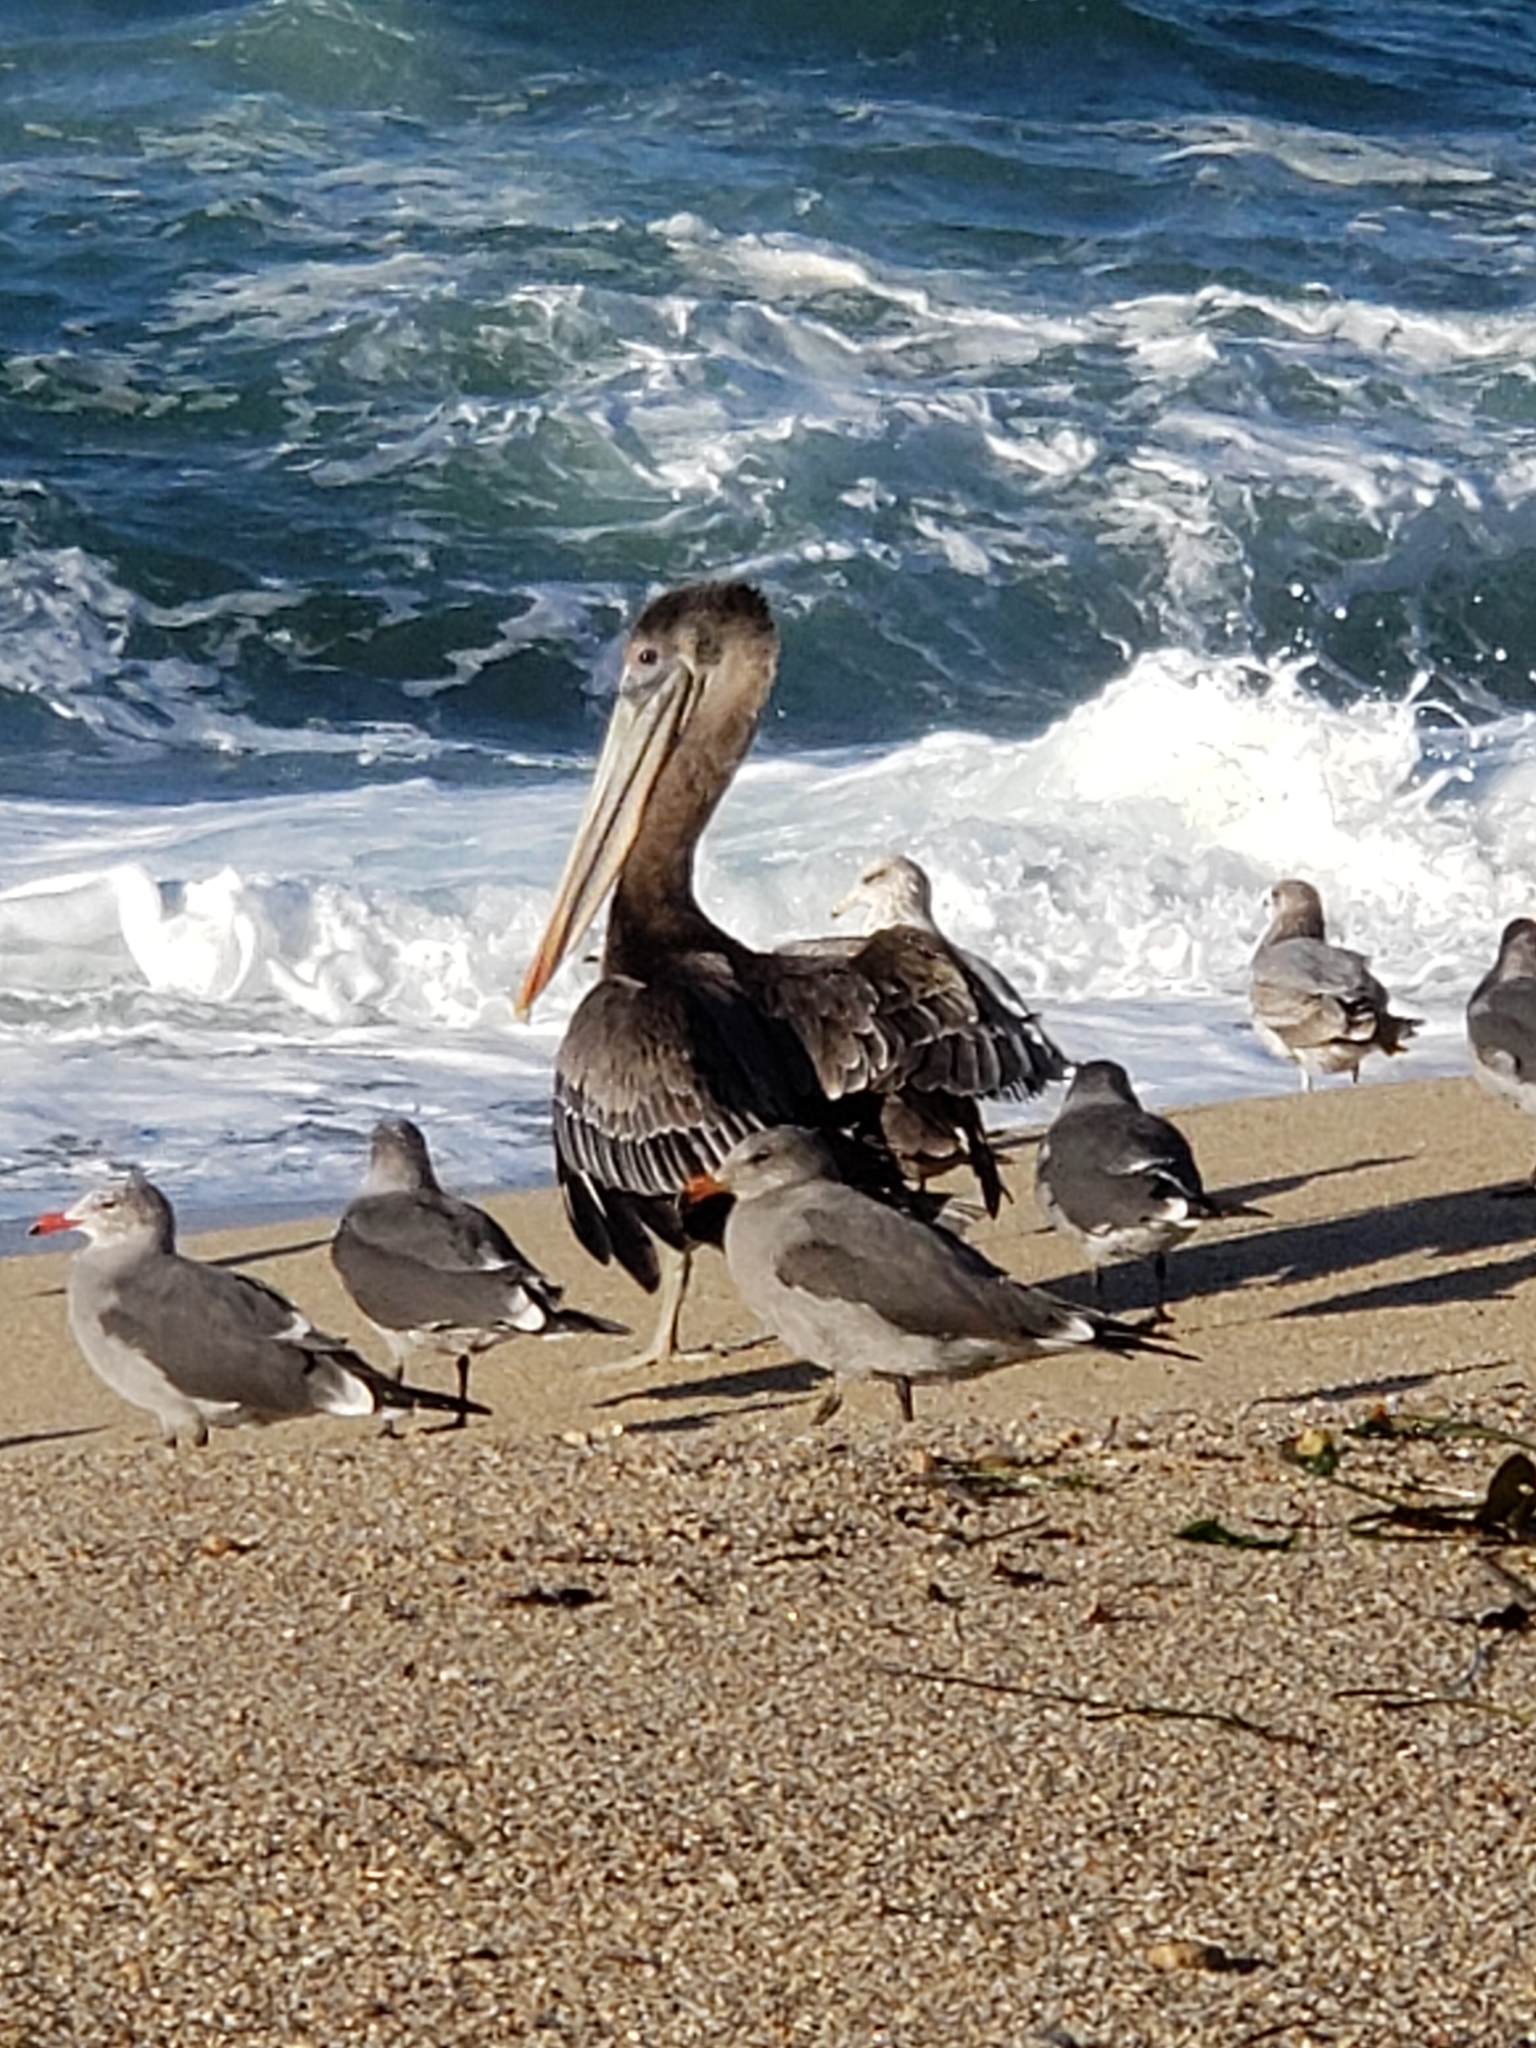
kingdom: Animalia
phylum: Chordata
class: Aves
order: Pelecaniformes
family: Pelecanidae
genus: Pelecanus
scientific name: Pelecanus occidentalis
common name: Brown pelican
